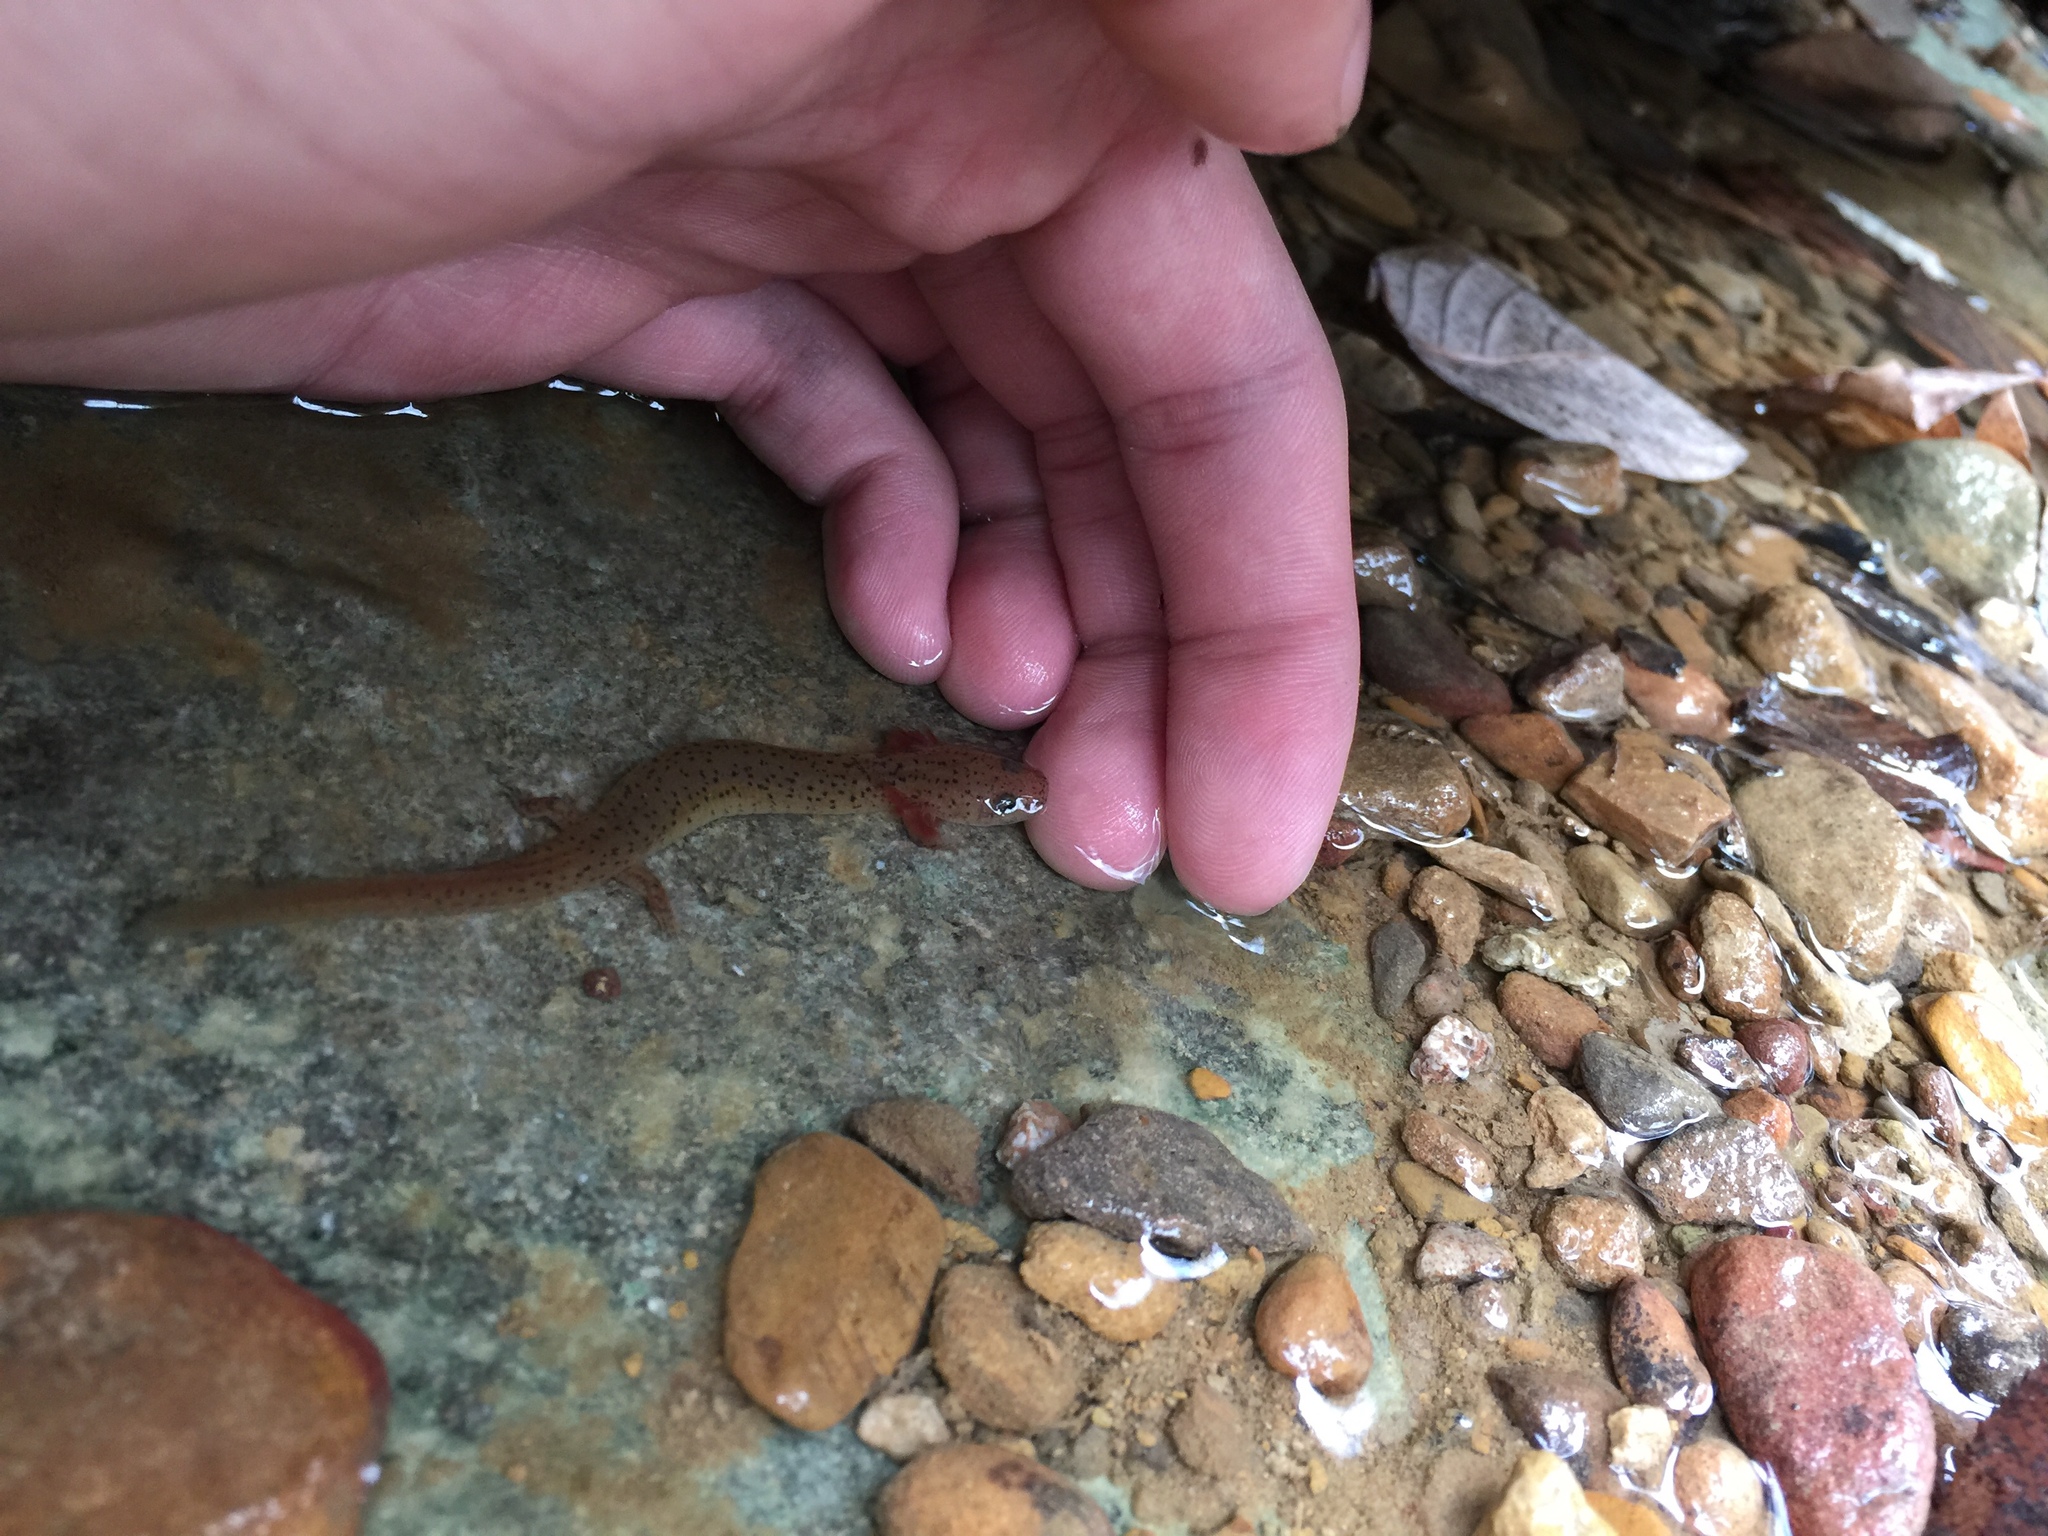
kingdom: Animalia
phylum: Chordata
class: Amphibia
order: Caudata
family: Plethodontidae
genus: Pseudotriton
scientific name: Pseudotriton ruber
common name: Red salamander
